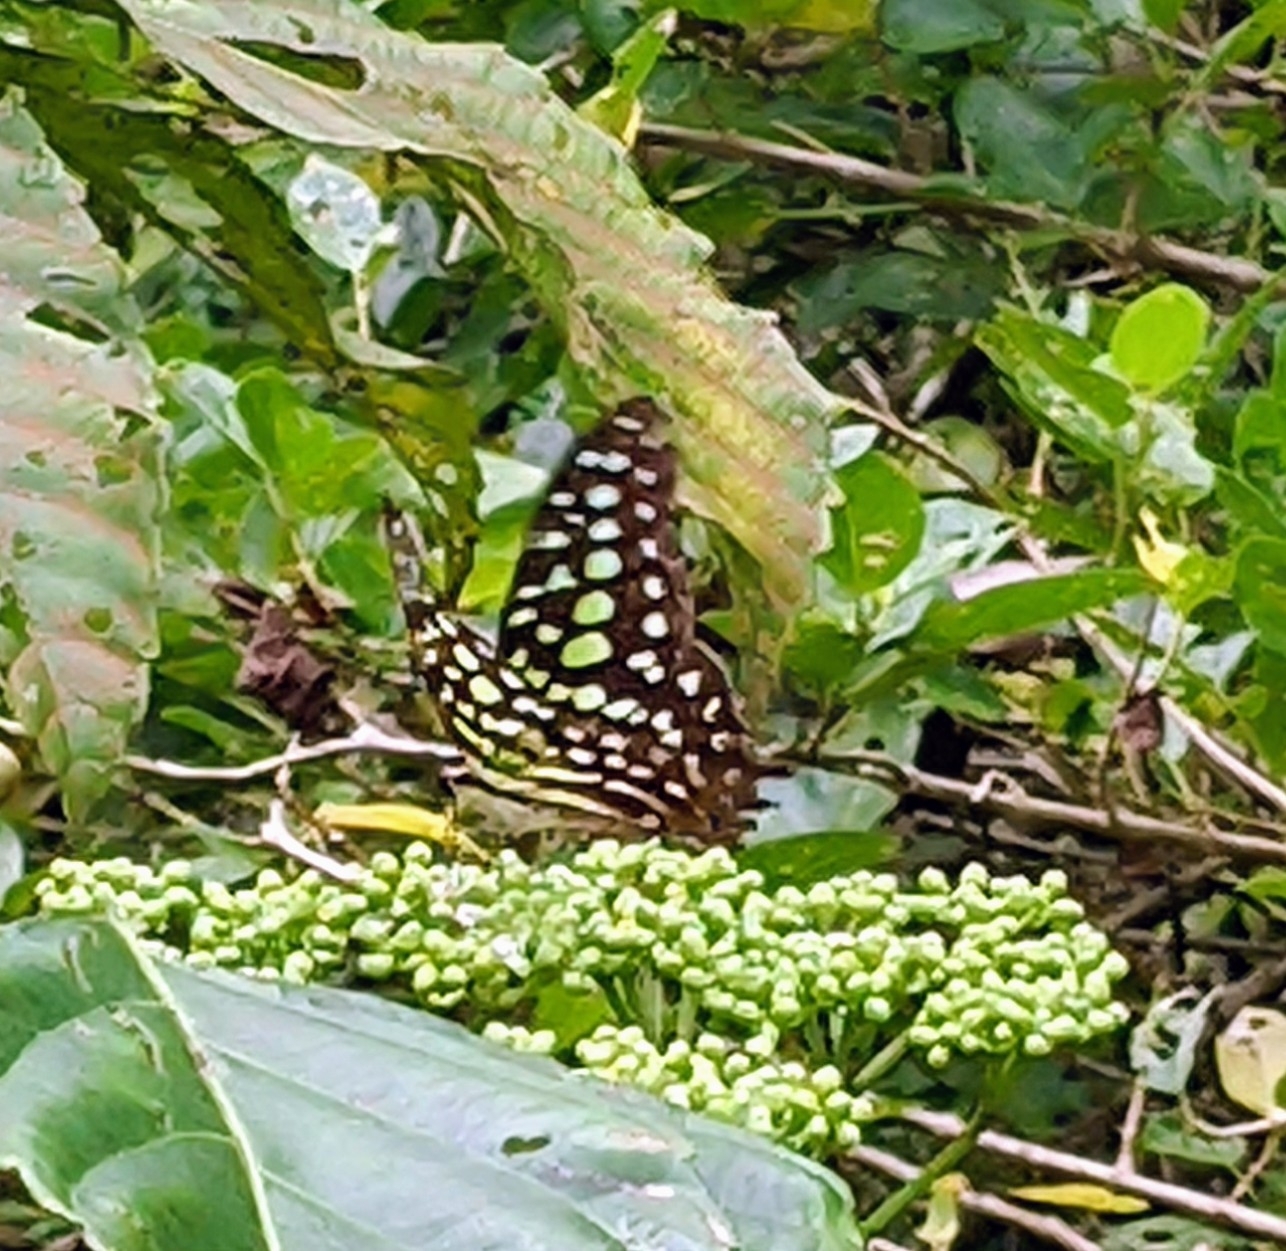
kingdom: Animalia
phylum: Arthropoda
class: Insecta
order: Lepidoptera
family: Papilionidae
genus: Graphium
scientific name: Graphium agamemnon
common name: Tailed jay
